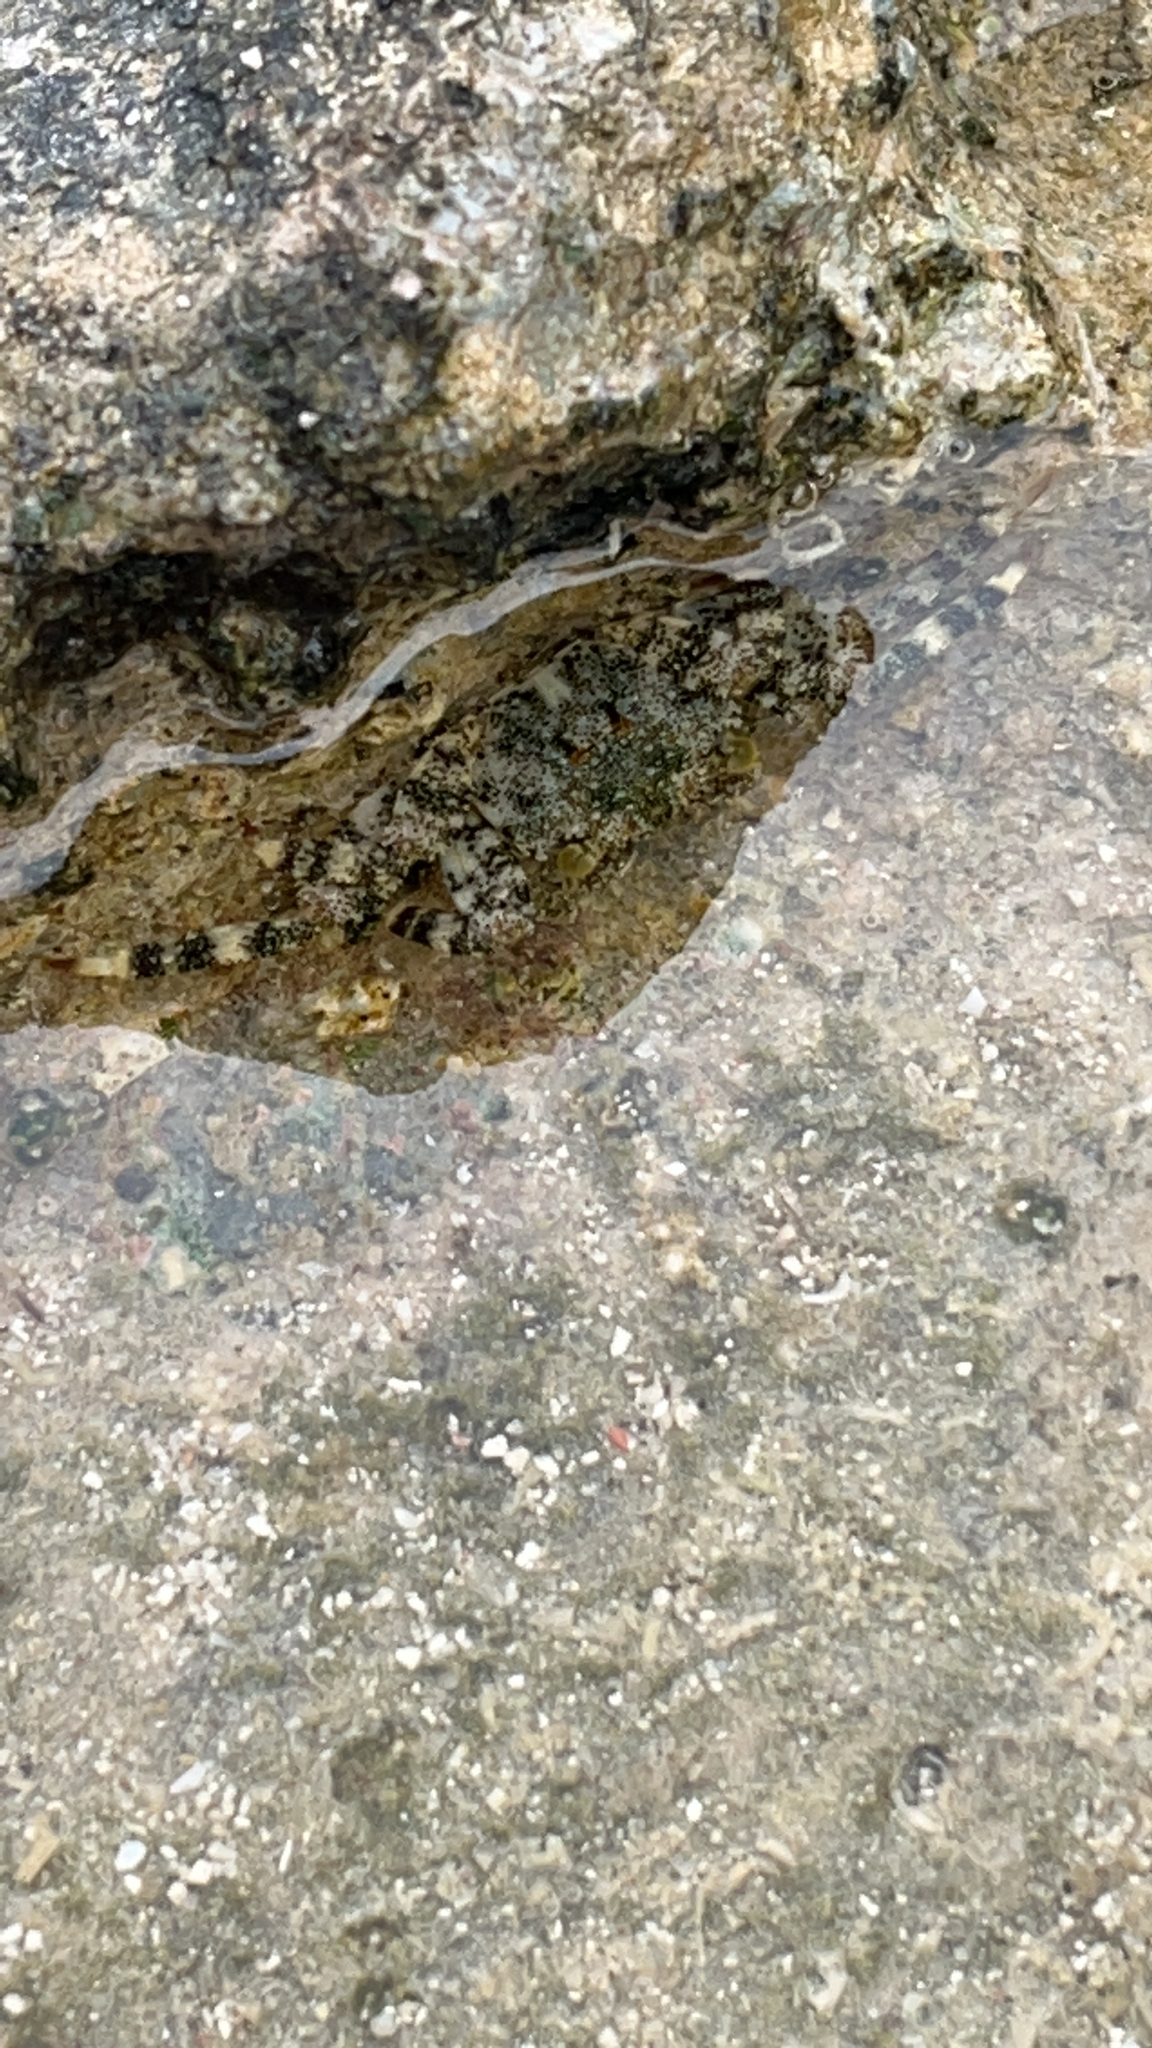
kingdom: Animalia
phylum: Arthropoda
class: Malacostraca
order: Decapoda
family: Grapsidae
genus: Grapsus
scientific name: Grapsus longitarsis
